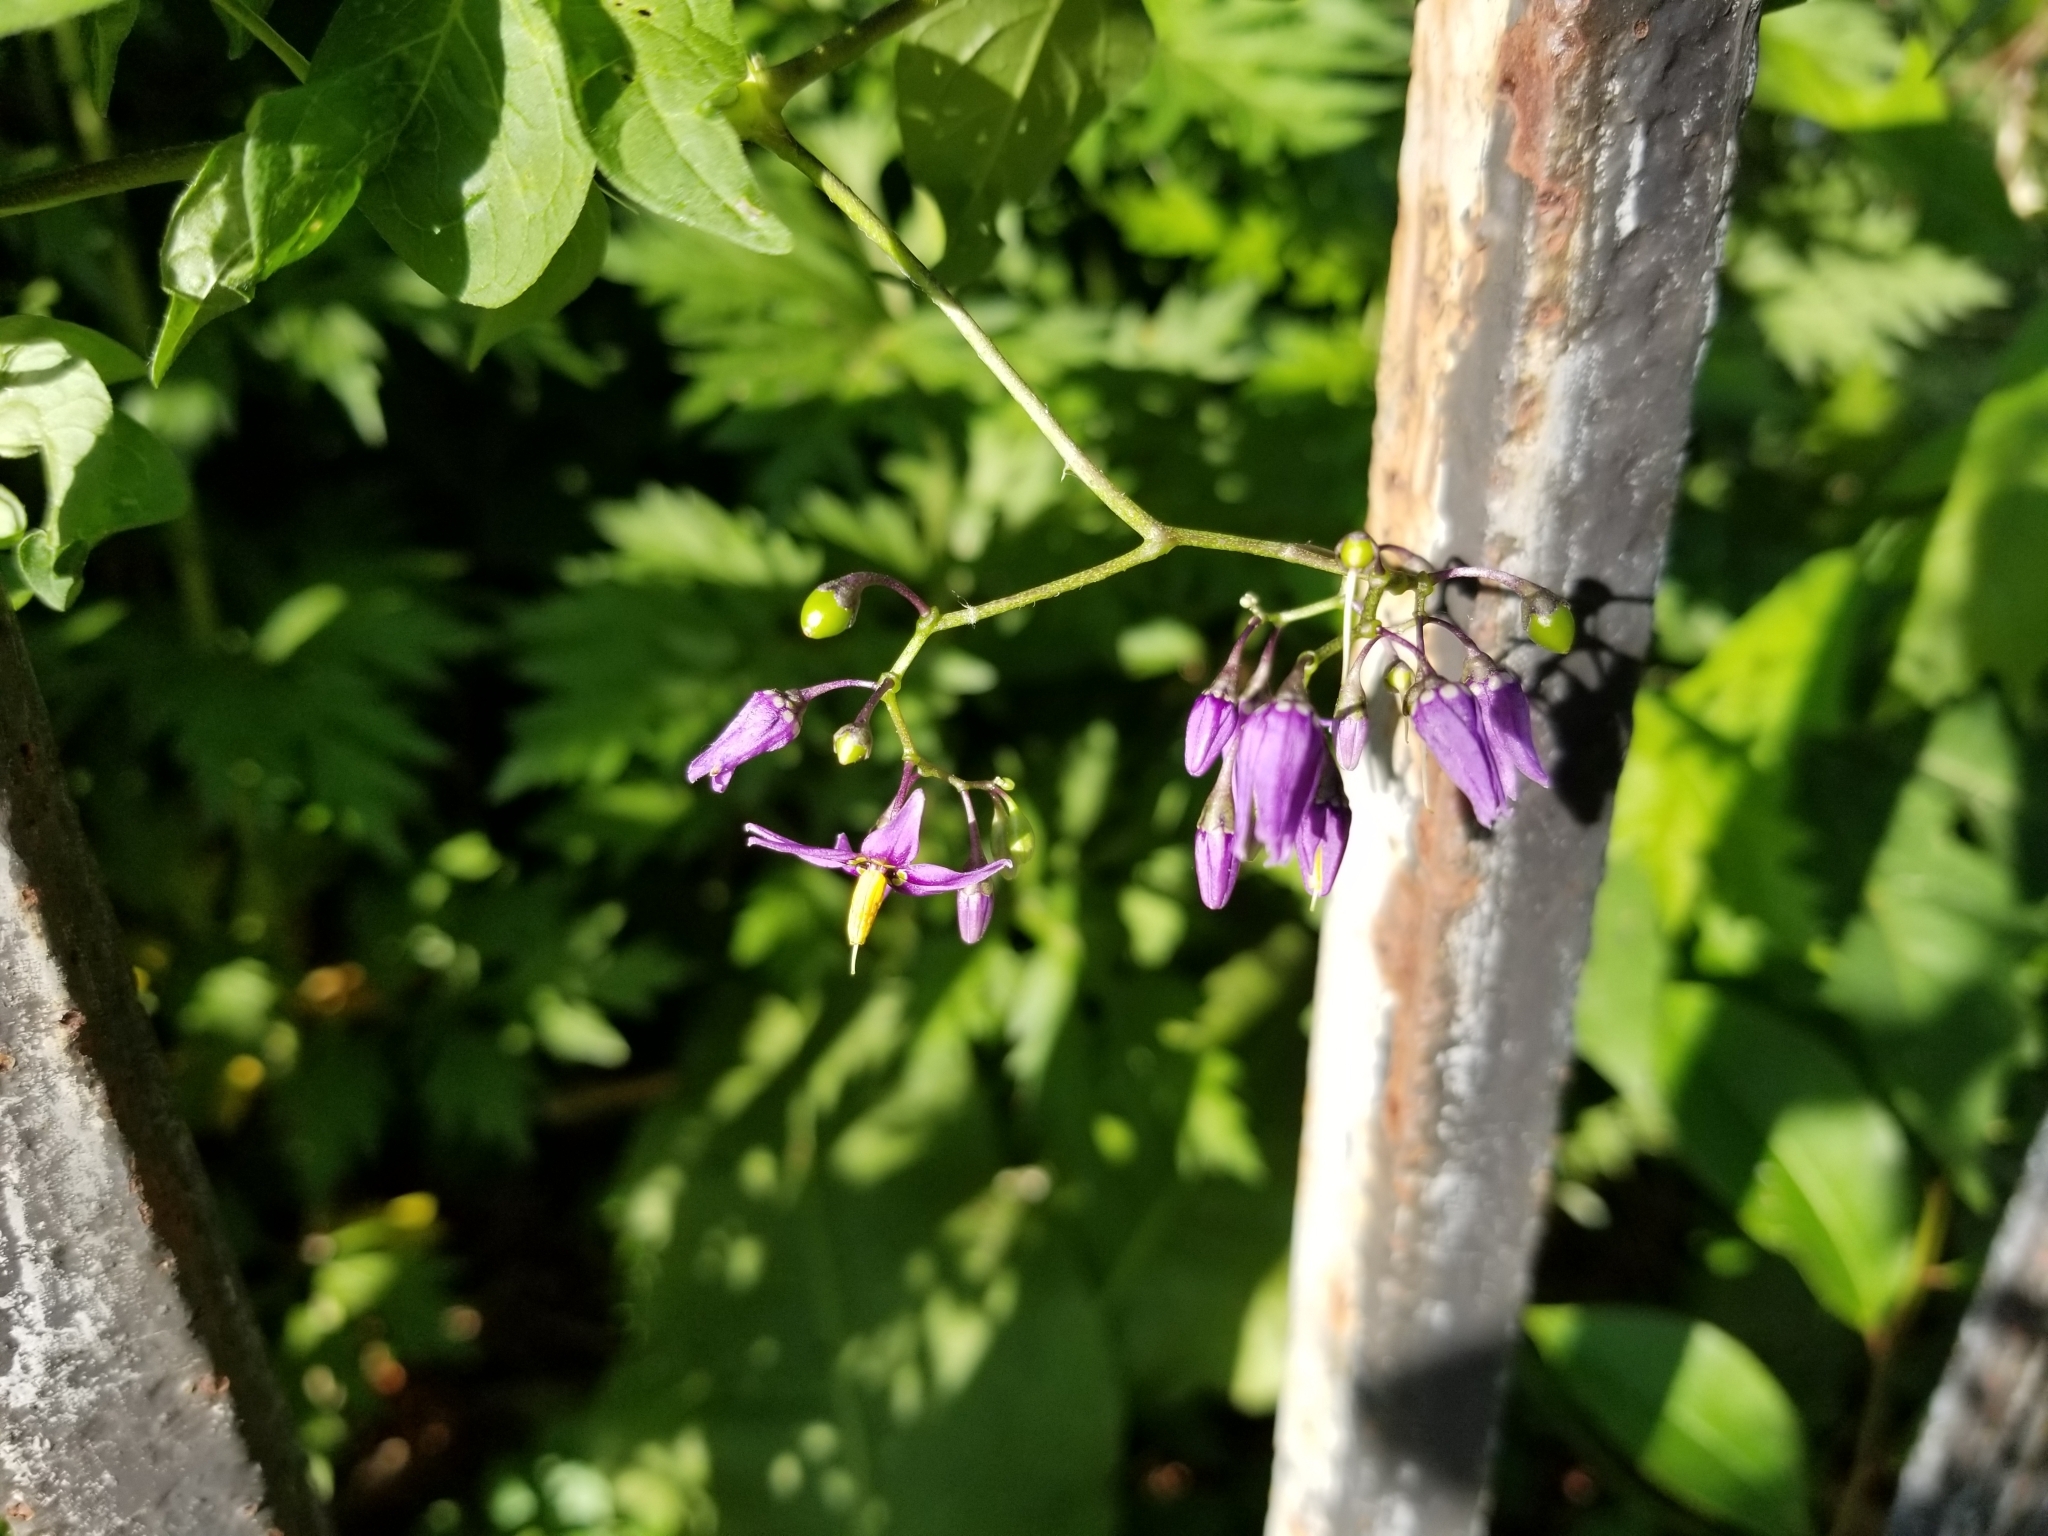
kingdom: Plantae
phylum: Tracheophyta
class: Magnoliopsida
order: Solanales
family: Solanaceae
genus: Solanum
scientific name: Solanum dulcamara
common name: Climbing nightshade
